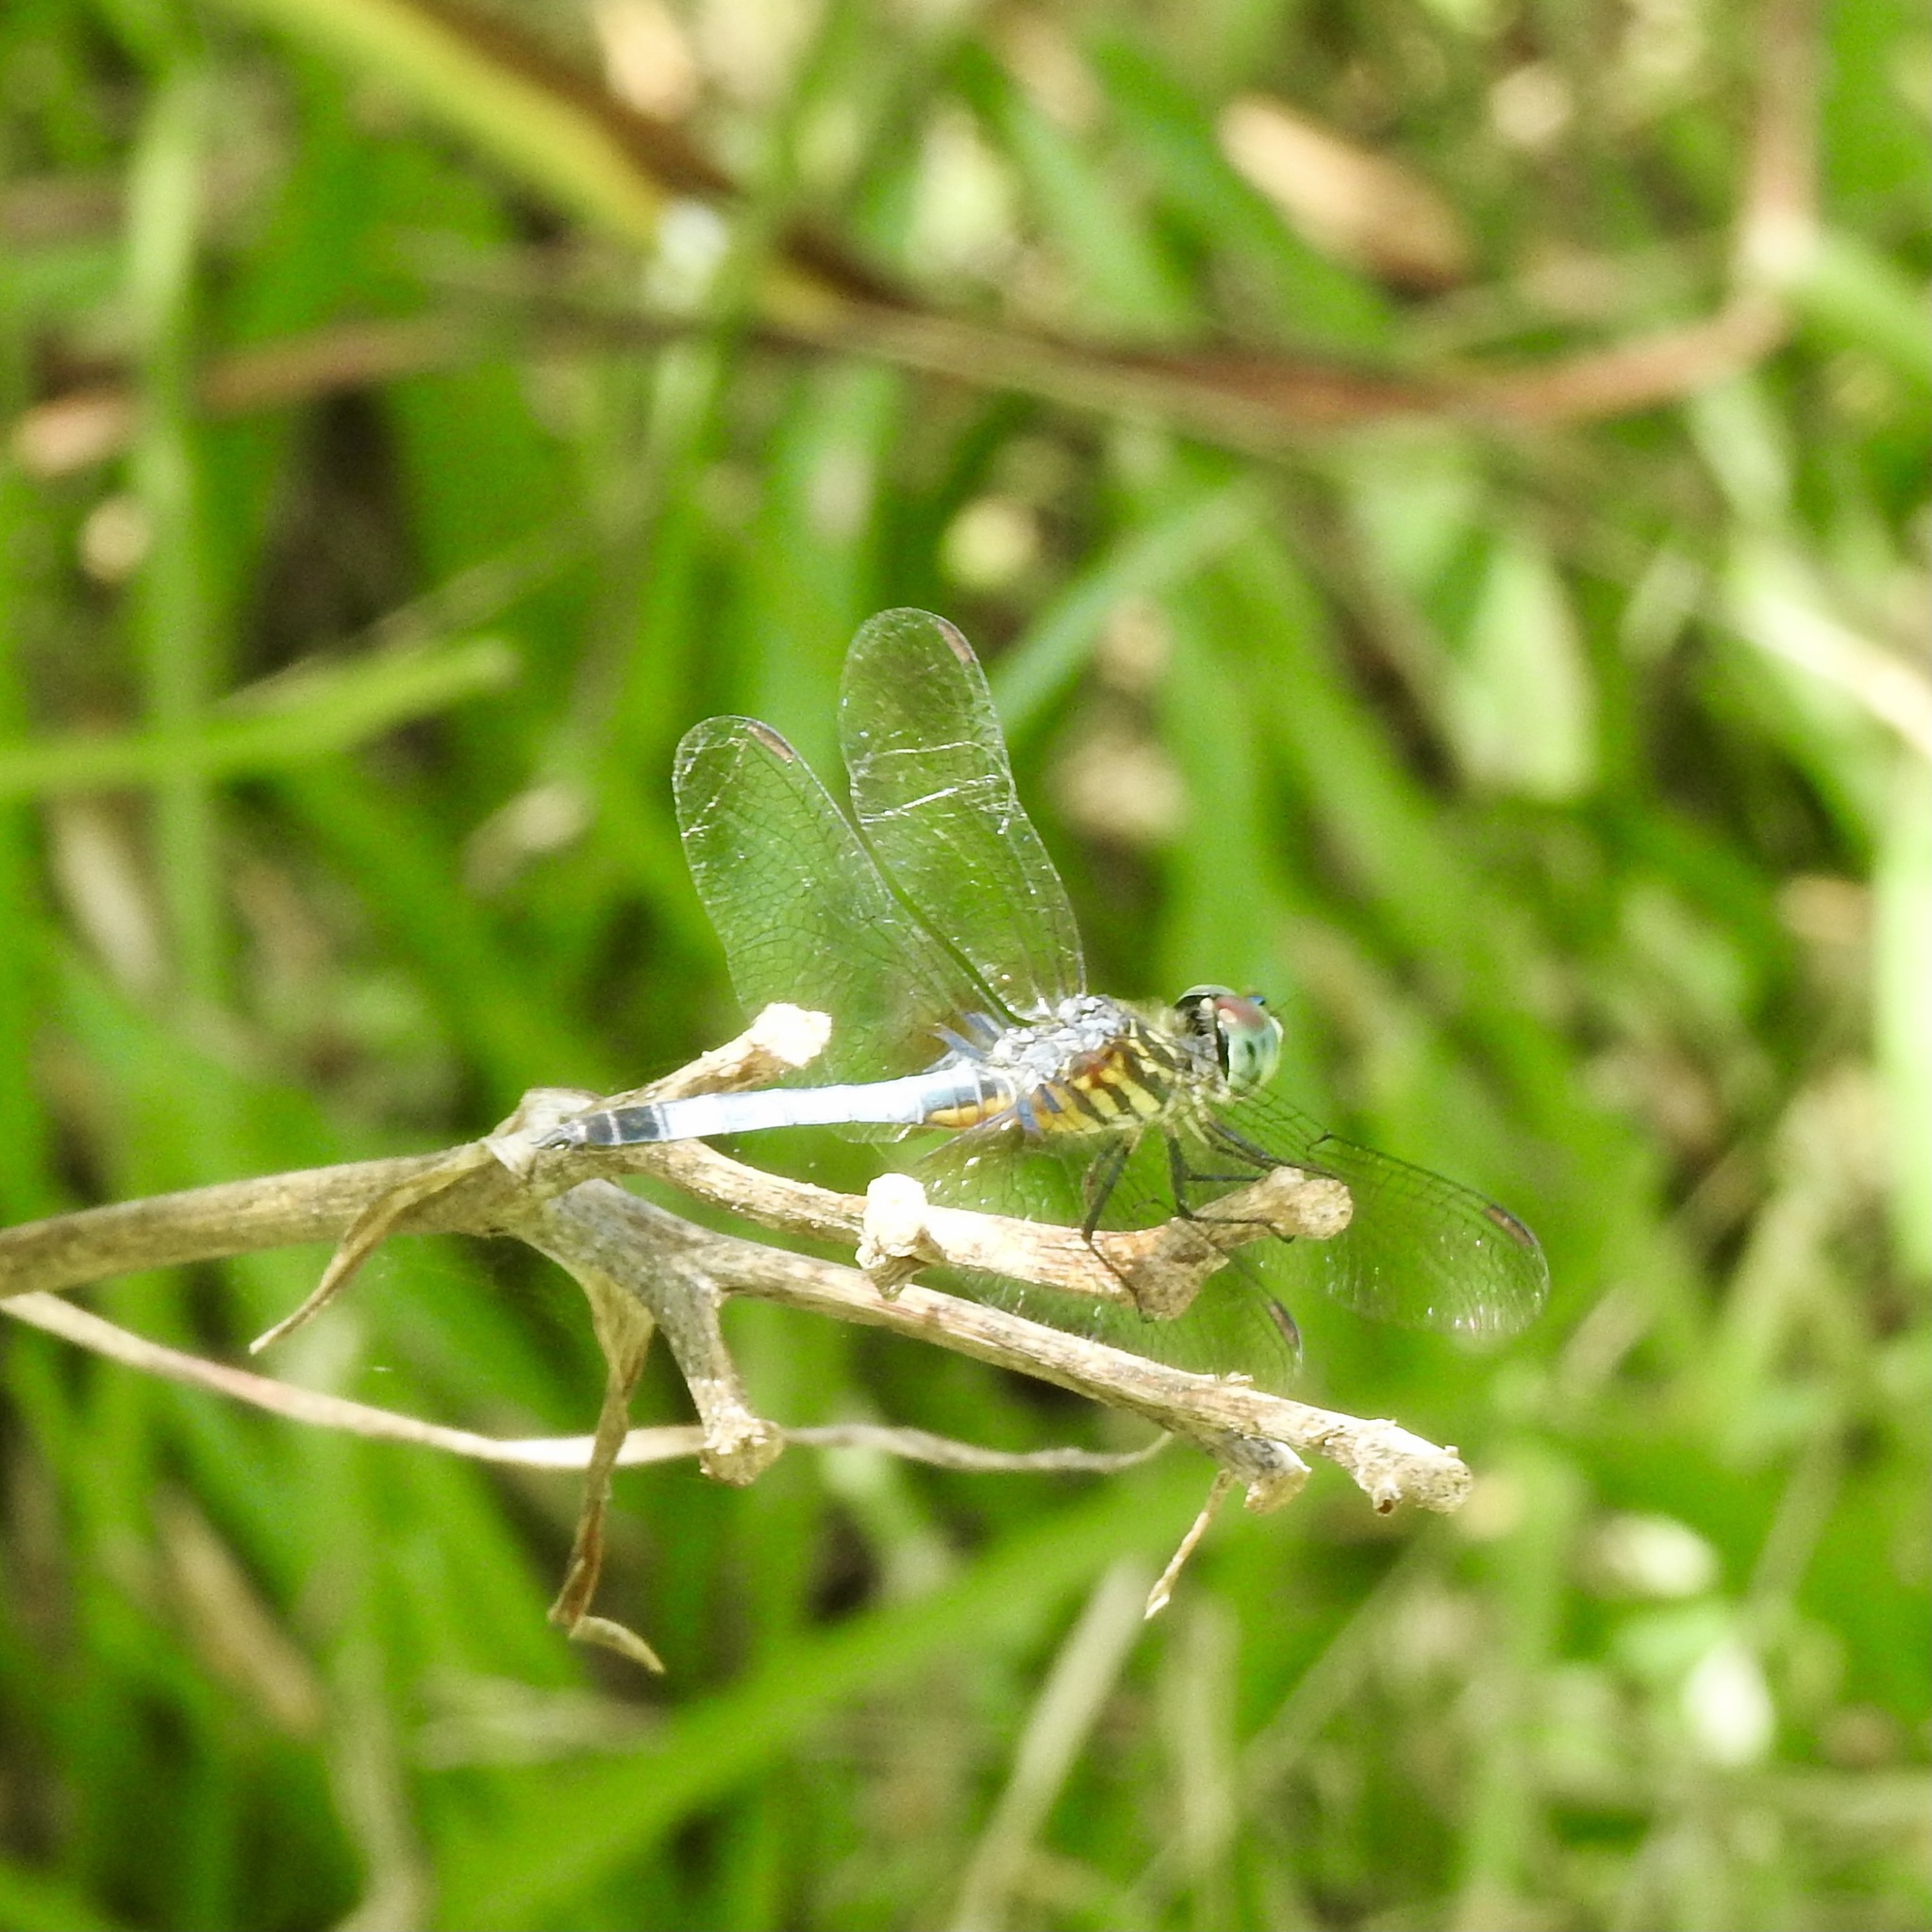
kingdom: Animalia
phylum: Arthropoda
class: Insecta
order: Odonata
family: Libellulidae
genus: Pachydiplax
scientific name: Pachydiplax longipennis
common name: Blue dasher
